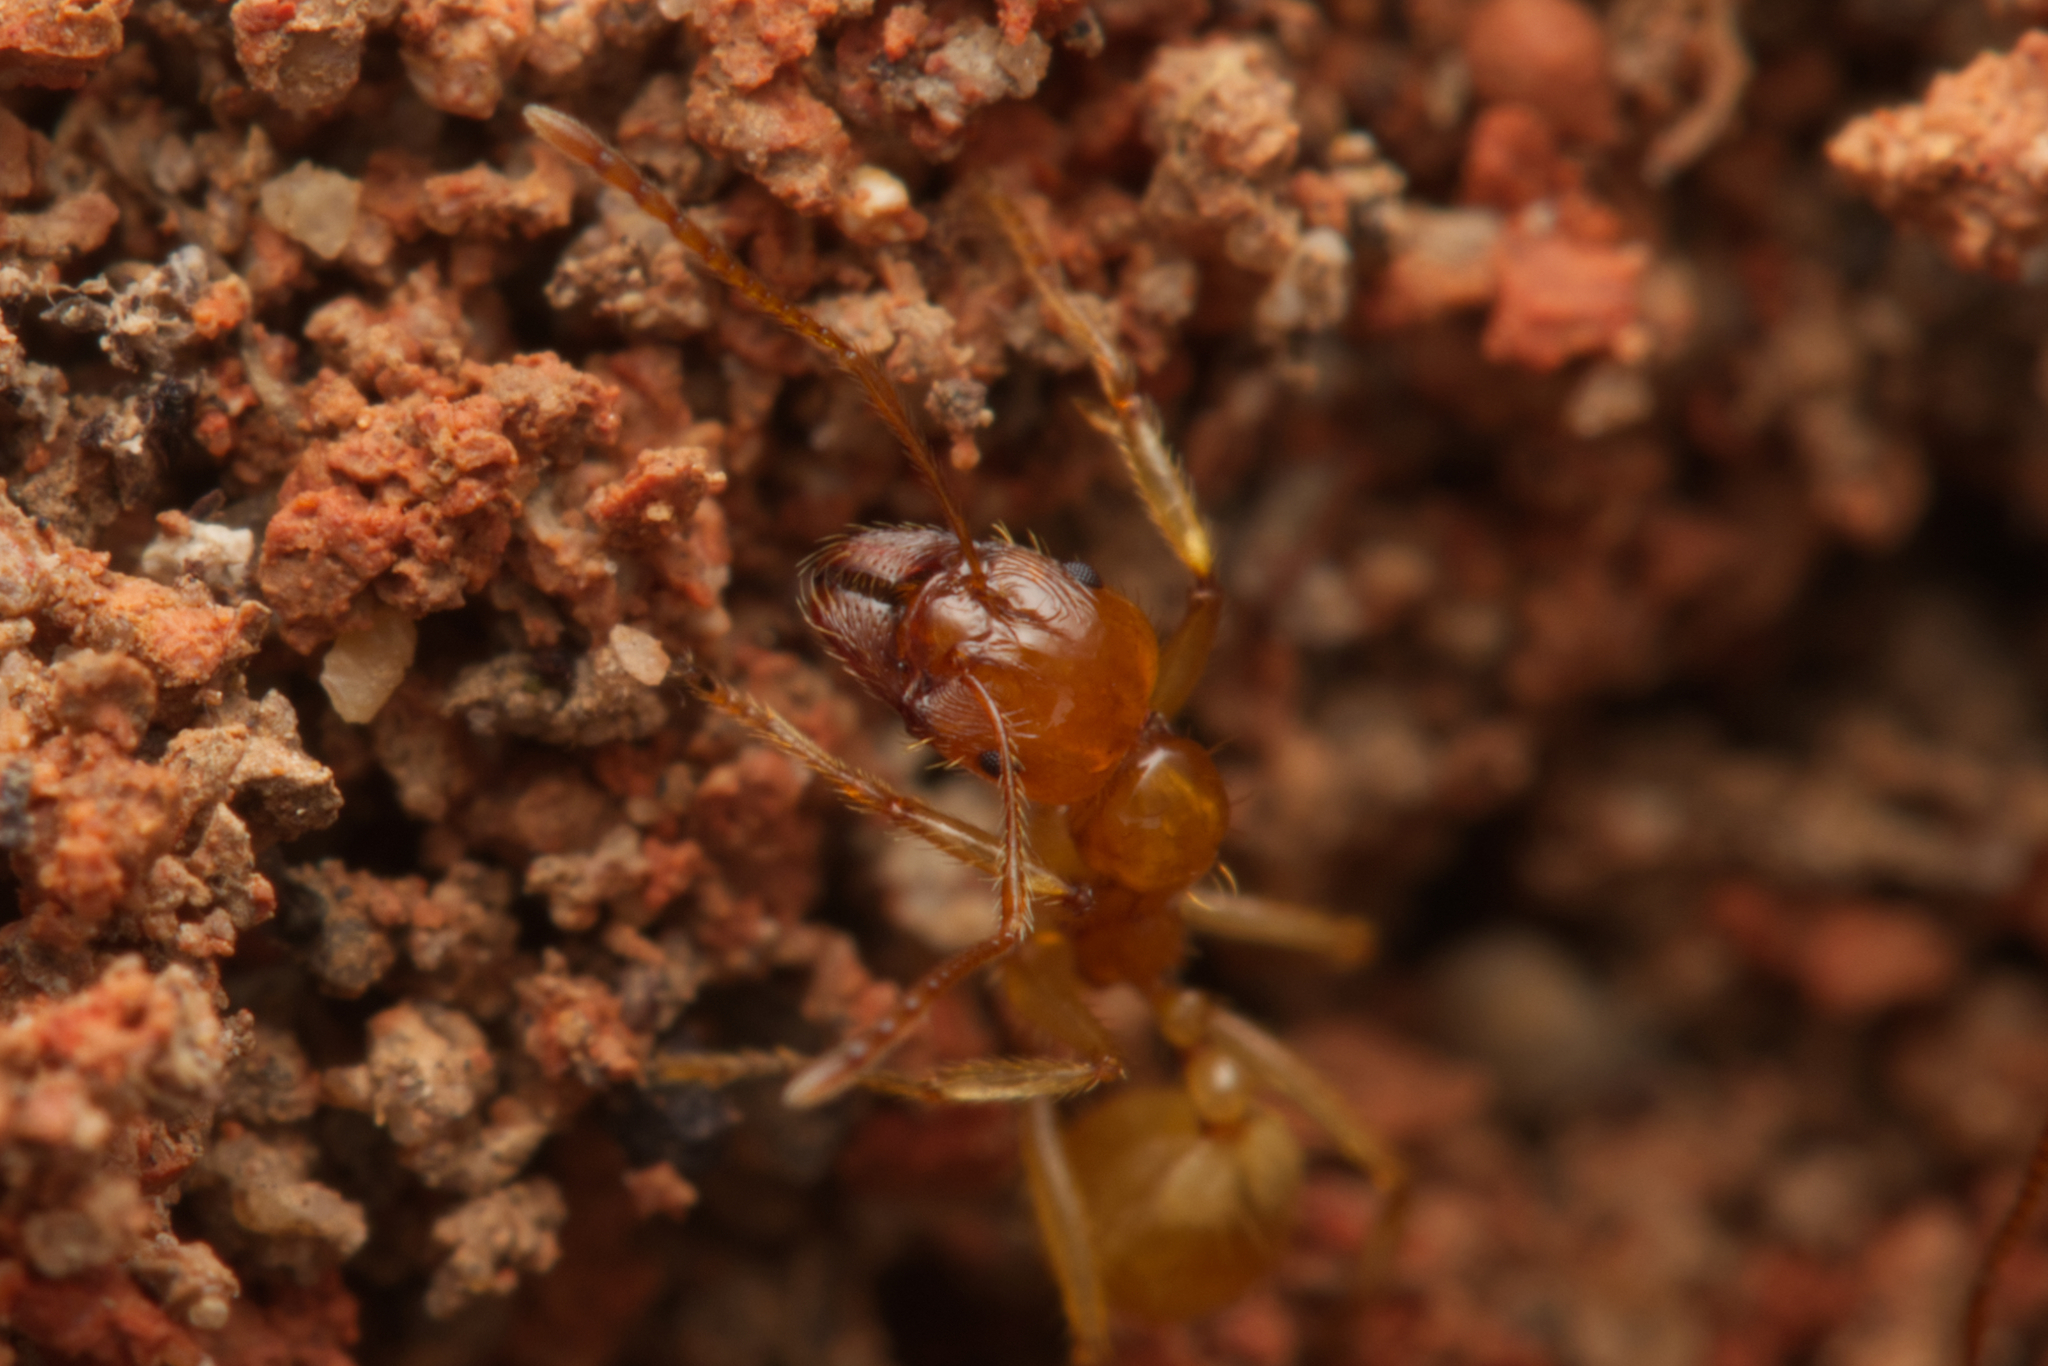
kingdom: Animalia
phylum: Arthropoda
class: Insecta
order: Hymenoptera
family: Formicidae
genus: Aphaenogaster
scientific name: Aphaenogaster pythia
